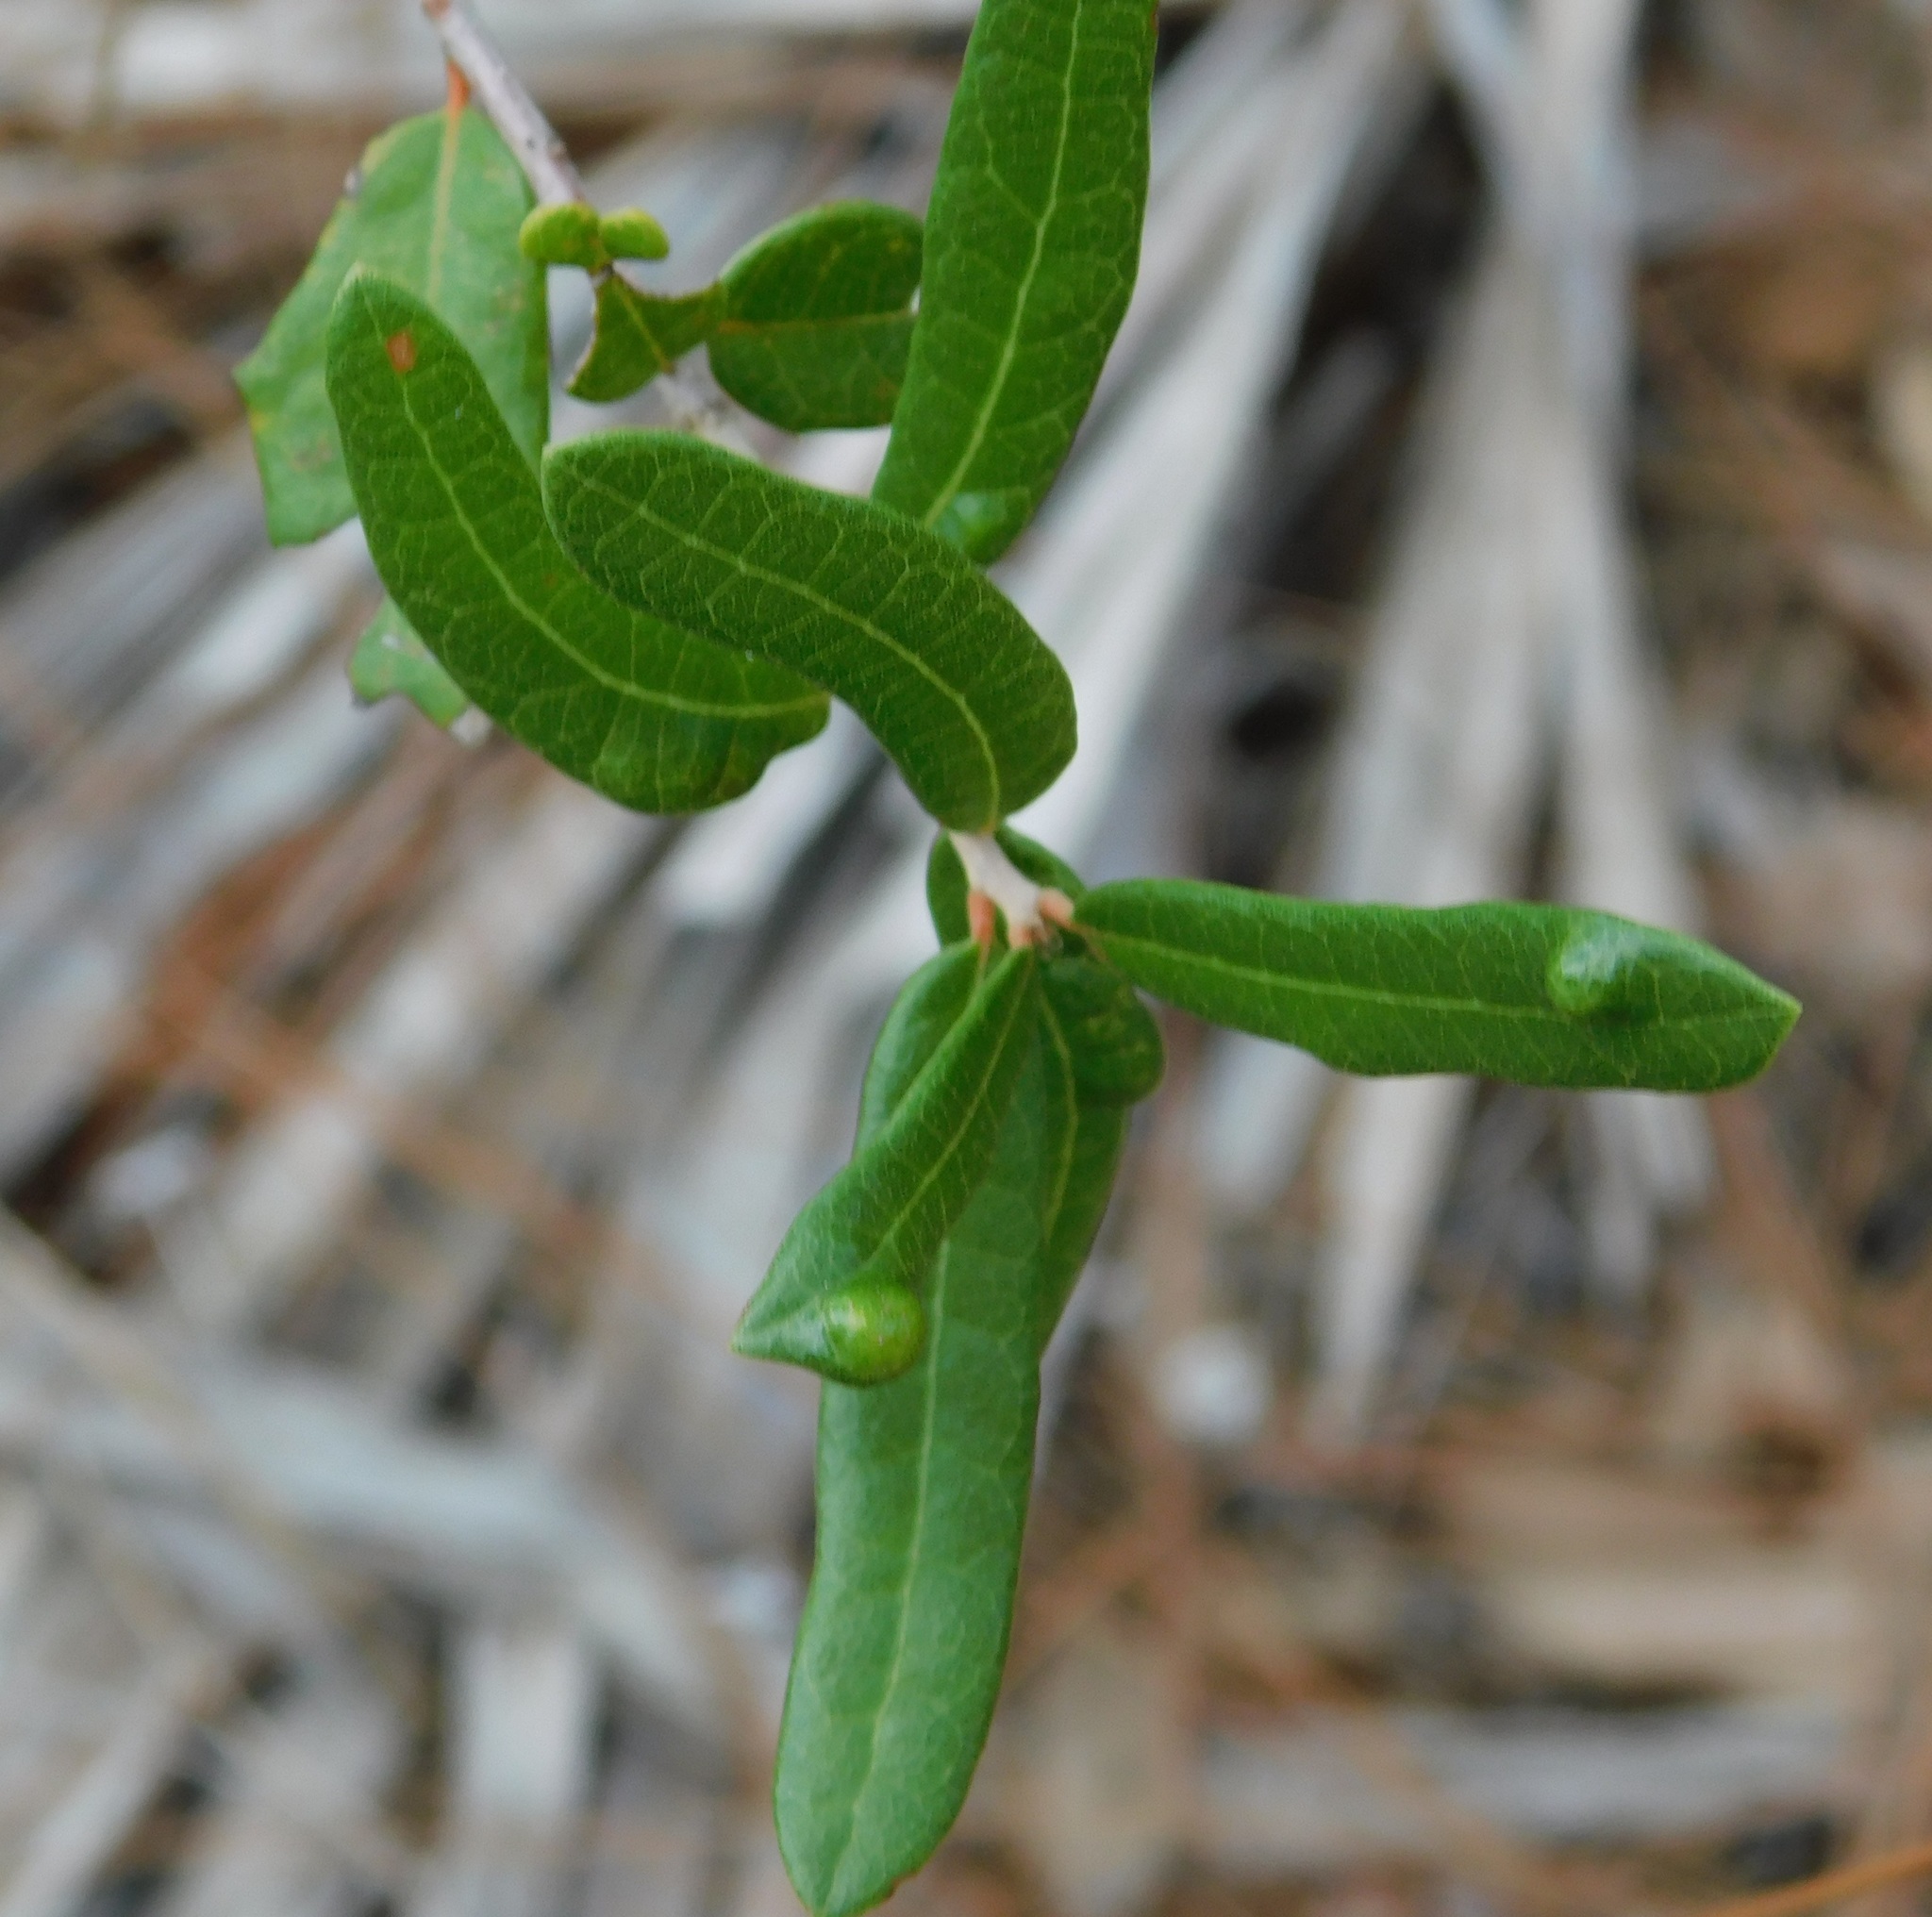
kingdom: Animalia
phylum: Arthropoda
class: Arachnida
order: Trombidiformes
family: Eriophyidae
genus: Aceria
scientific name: Aceria quercina
